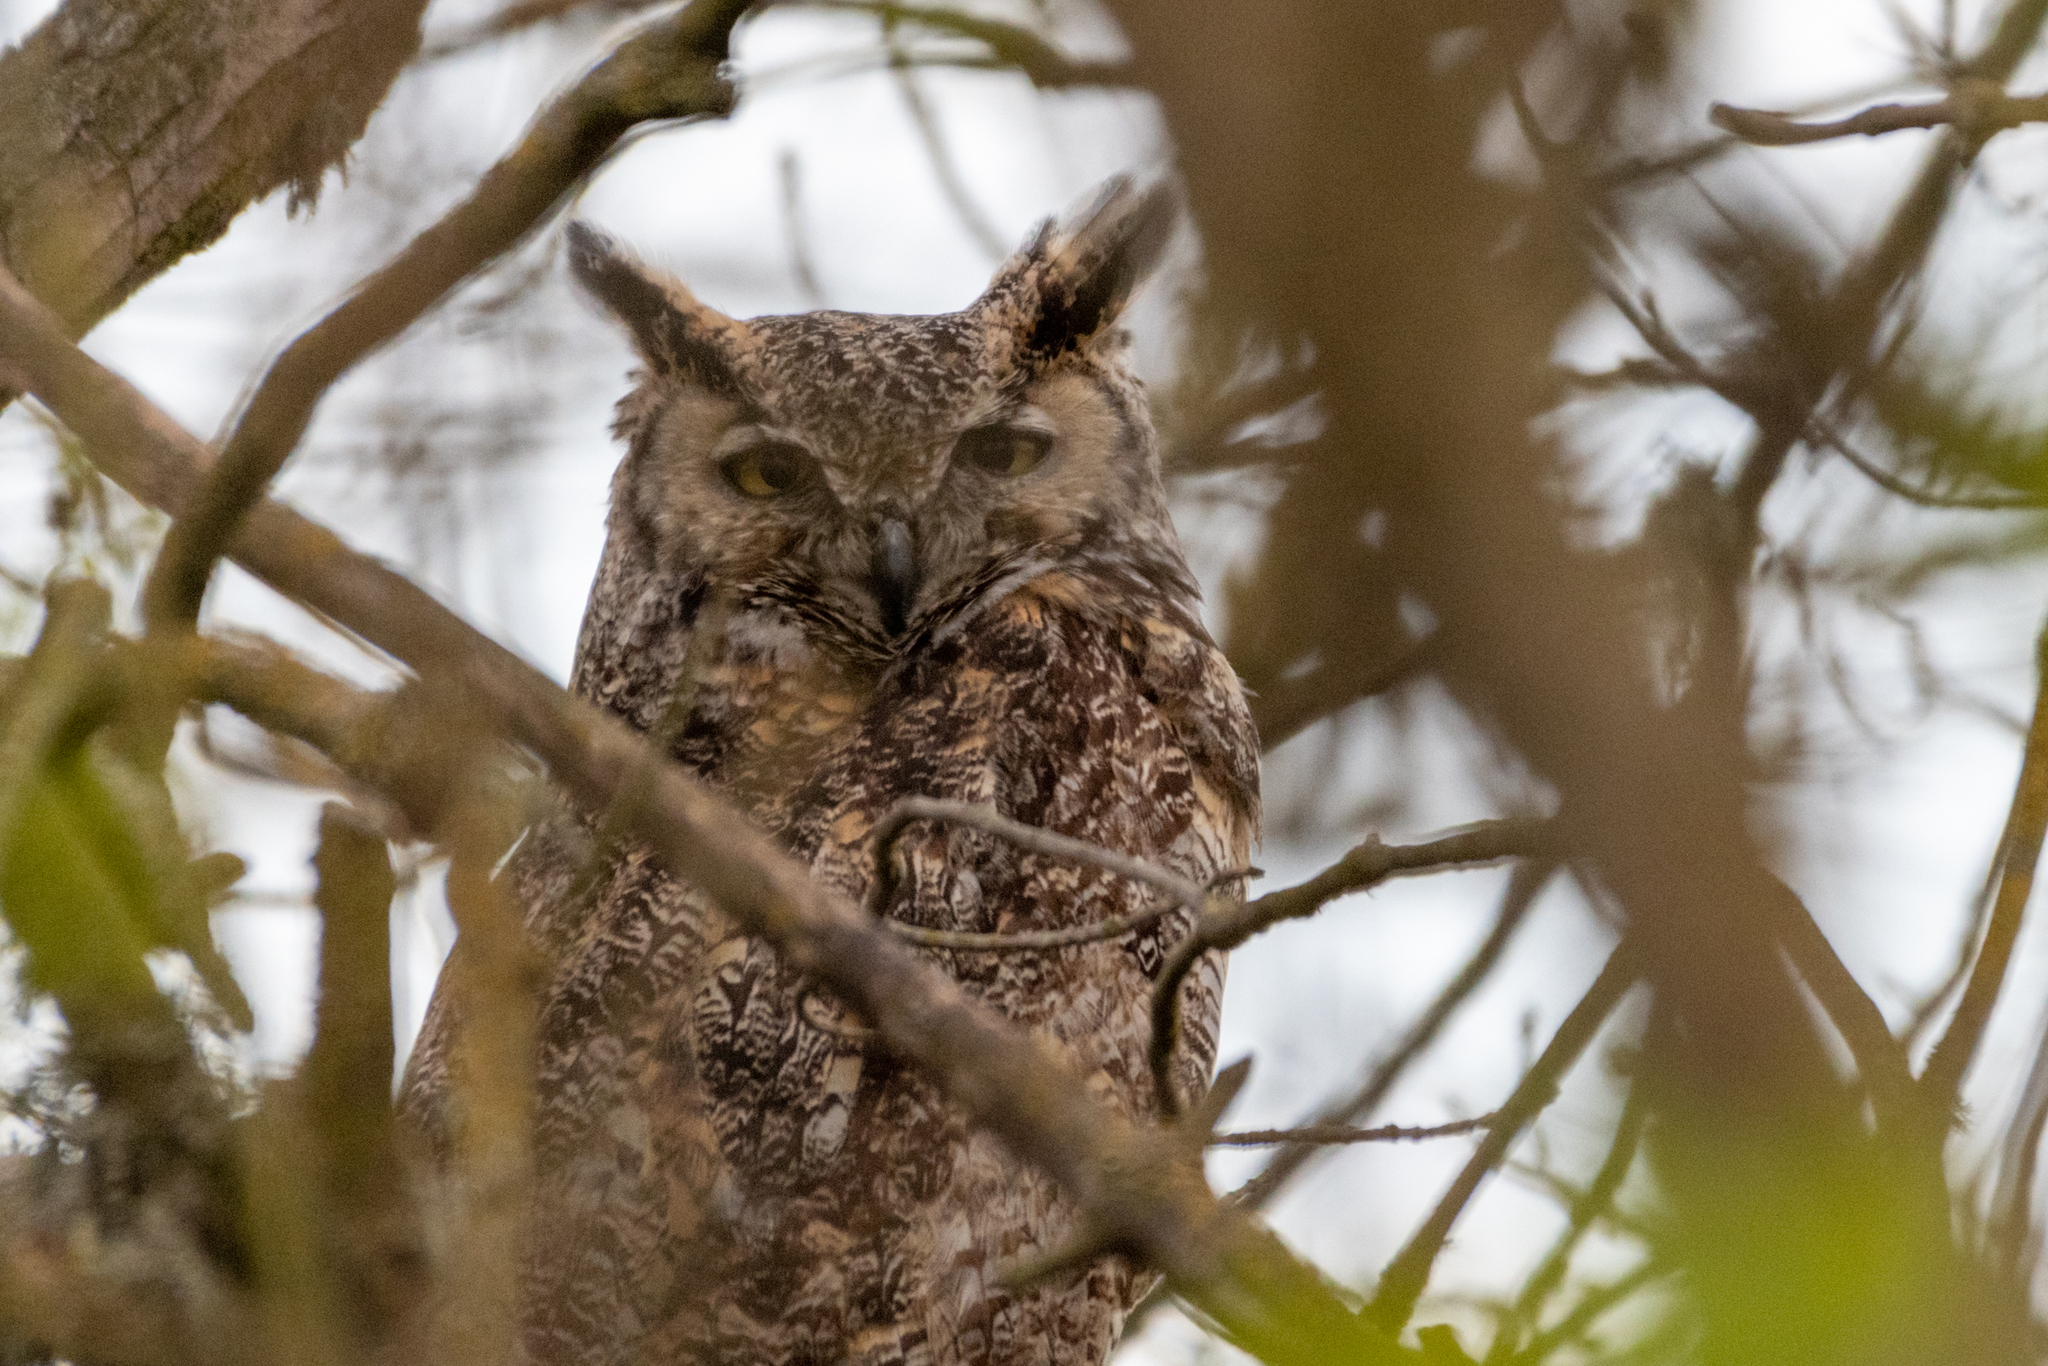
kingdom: Animalia
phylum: Chordata
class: Aves
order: Strigiformes
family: Strigidae
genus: Bubo
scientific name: Bubo virginianus
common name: Great horned owl
